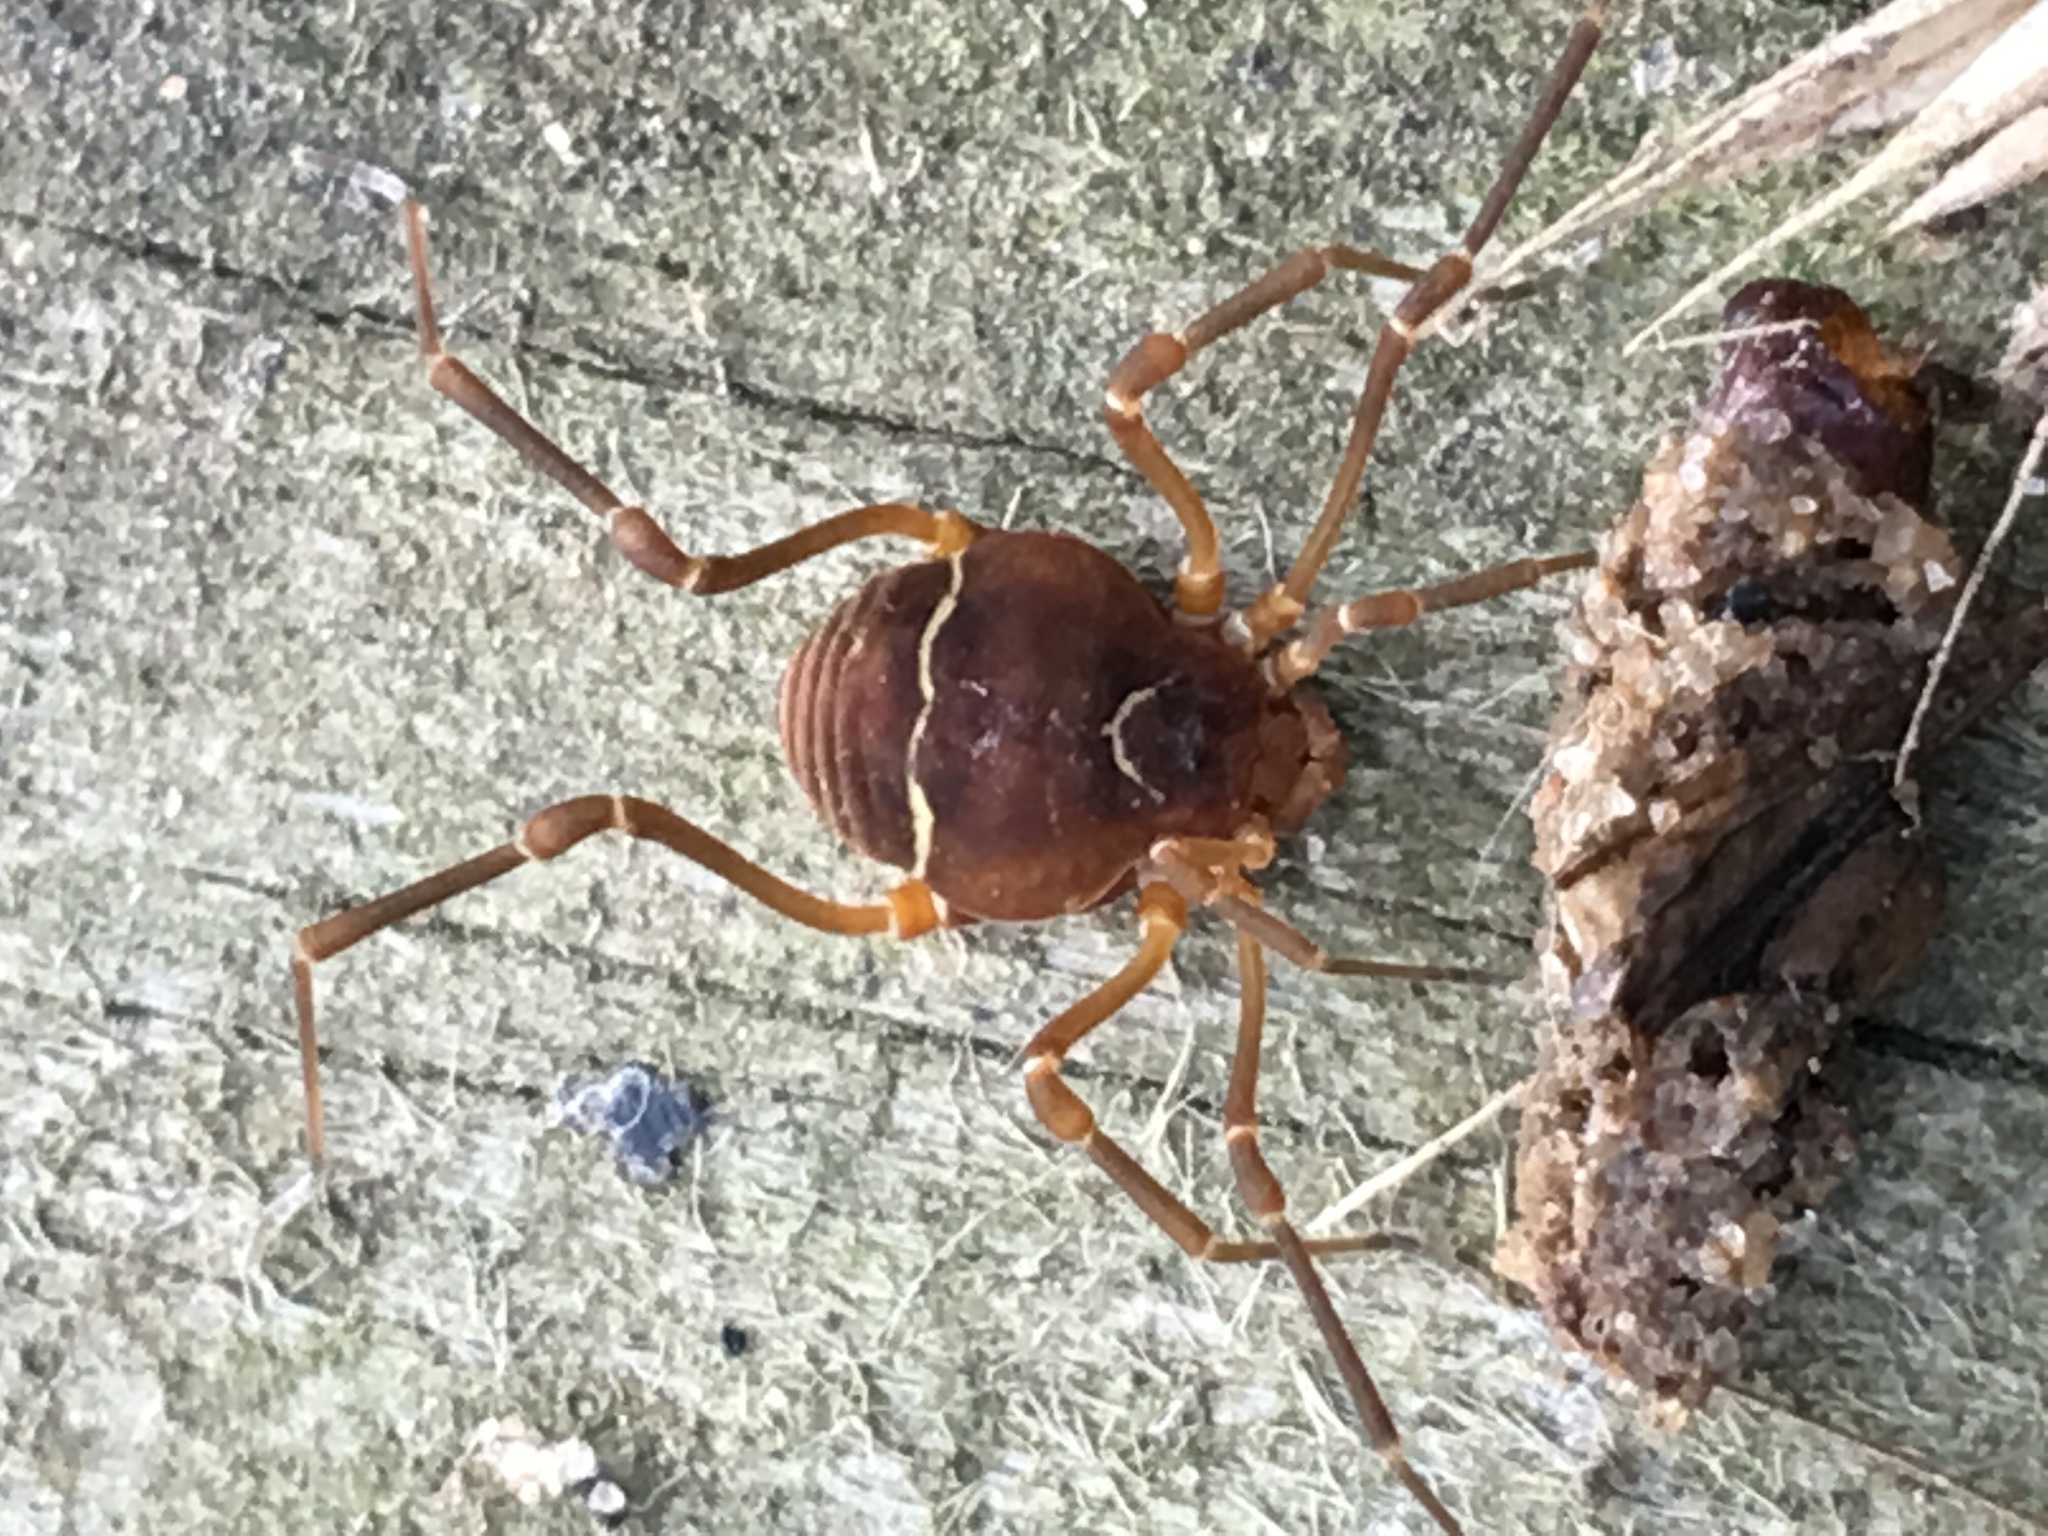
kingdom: Animalia
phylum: Arthropoda
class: Arachnida
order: Opiliones
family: Cosmetidae
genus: Libitioides
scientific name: Libitioides sayi
